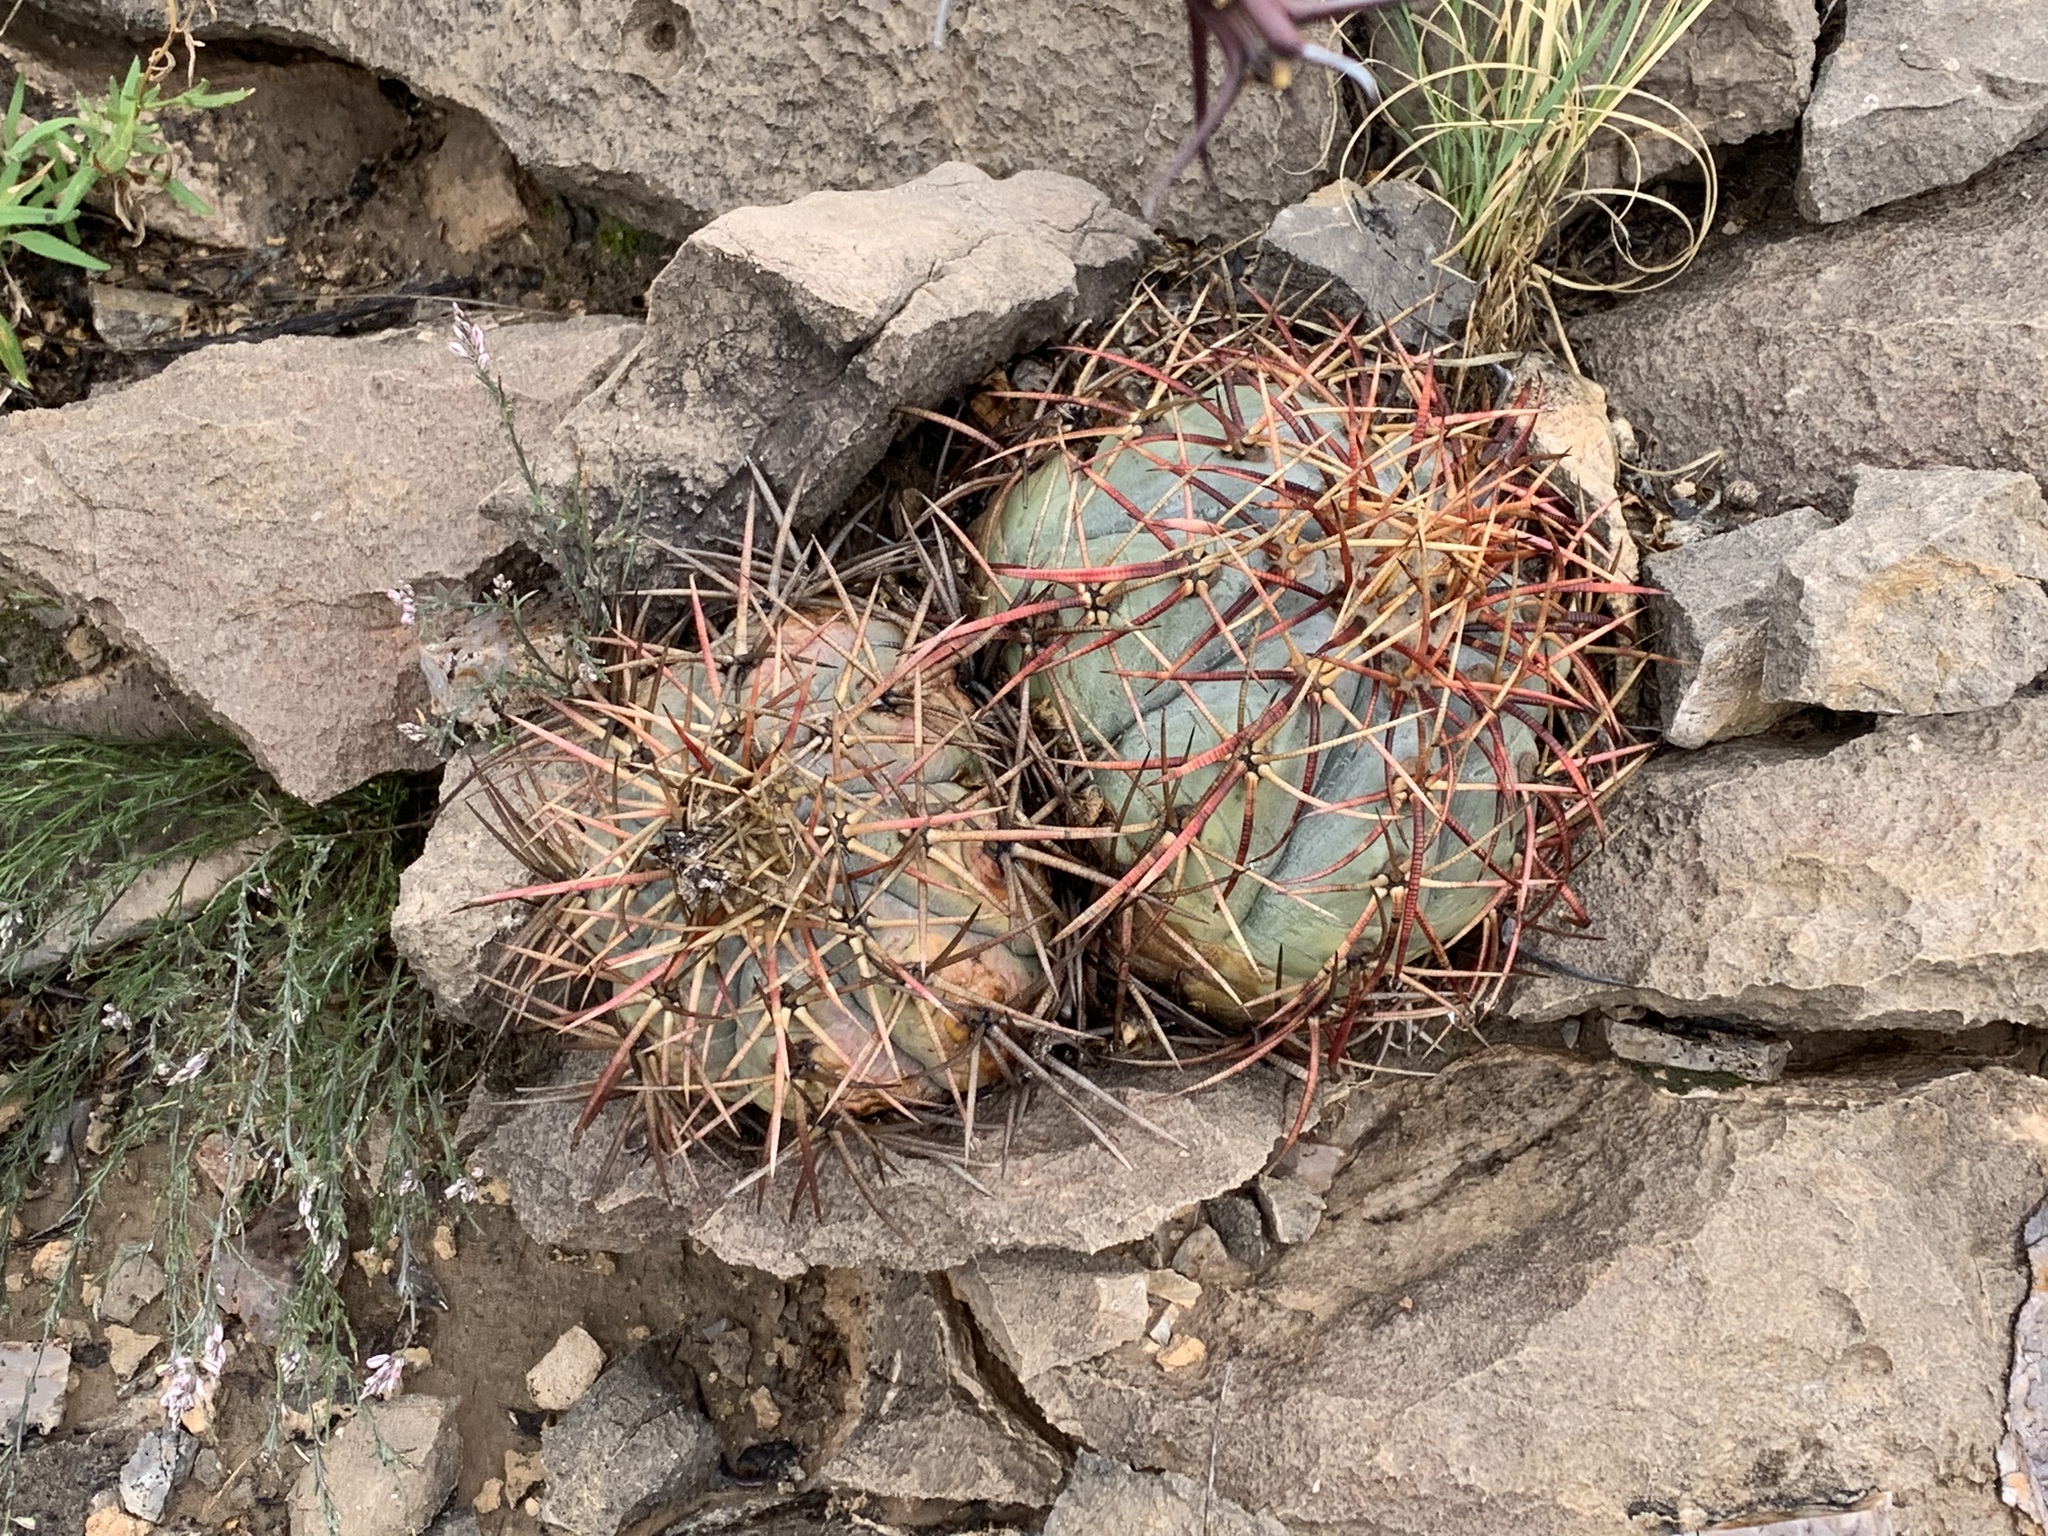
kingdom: Plantae
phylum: Tracheophyta
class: Magnoliopsida
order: Caryophyllales
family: Cactaceae
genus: Echinocactus
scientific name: Echinocactus horizonthalonius
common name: Devilshead
